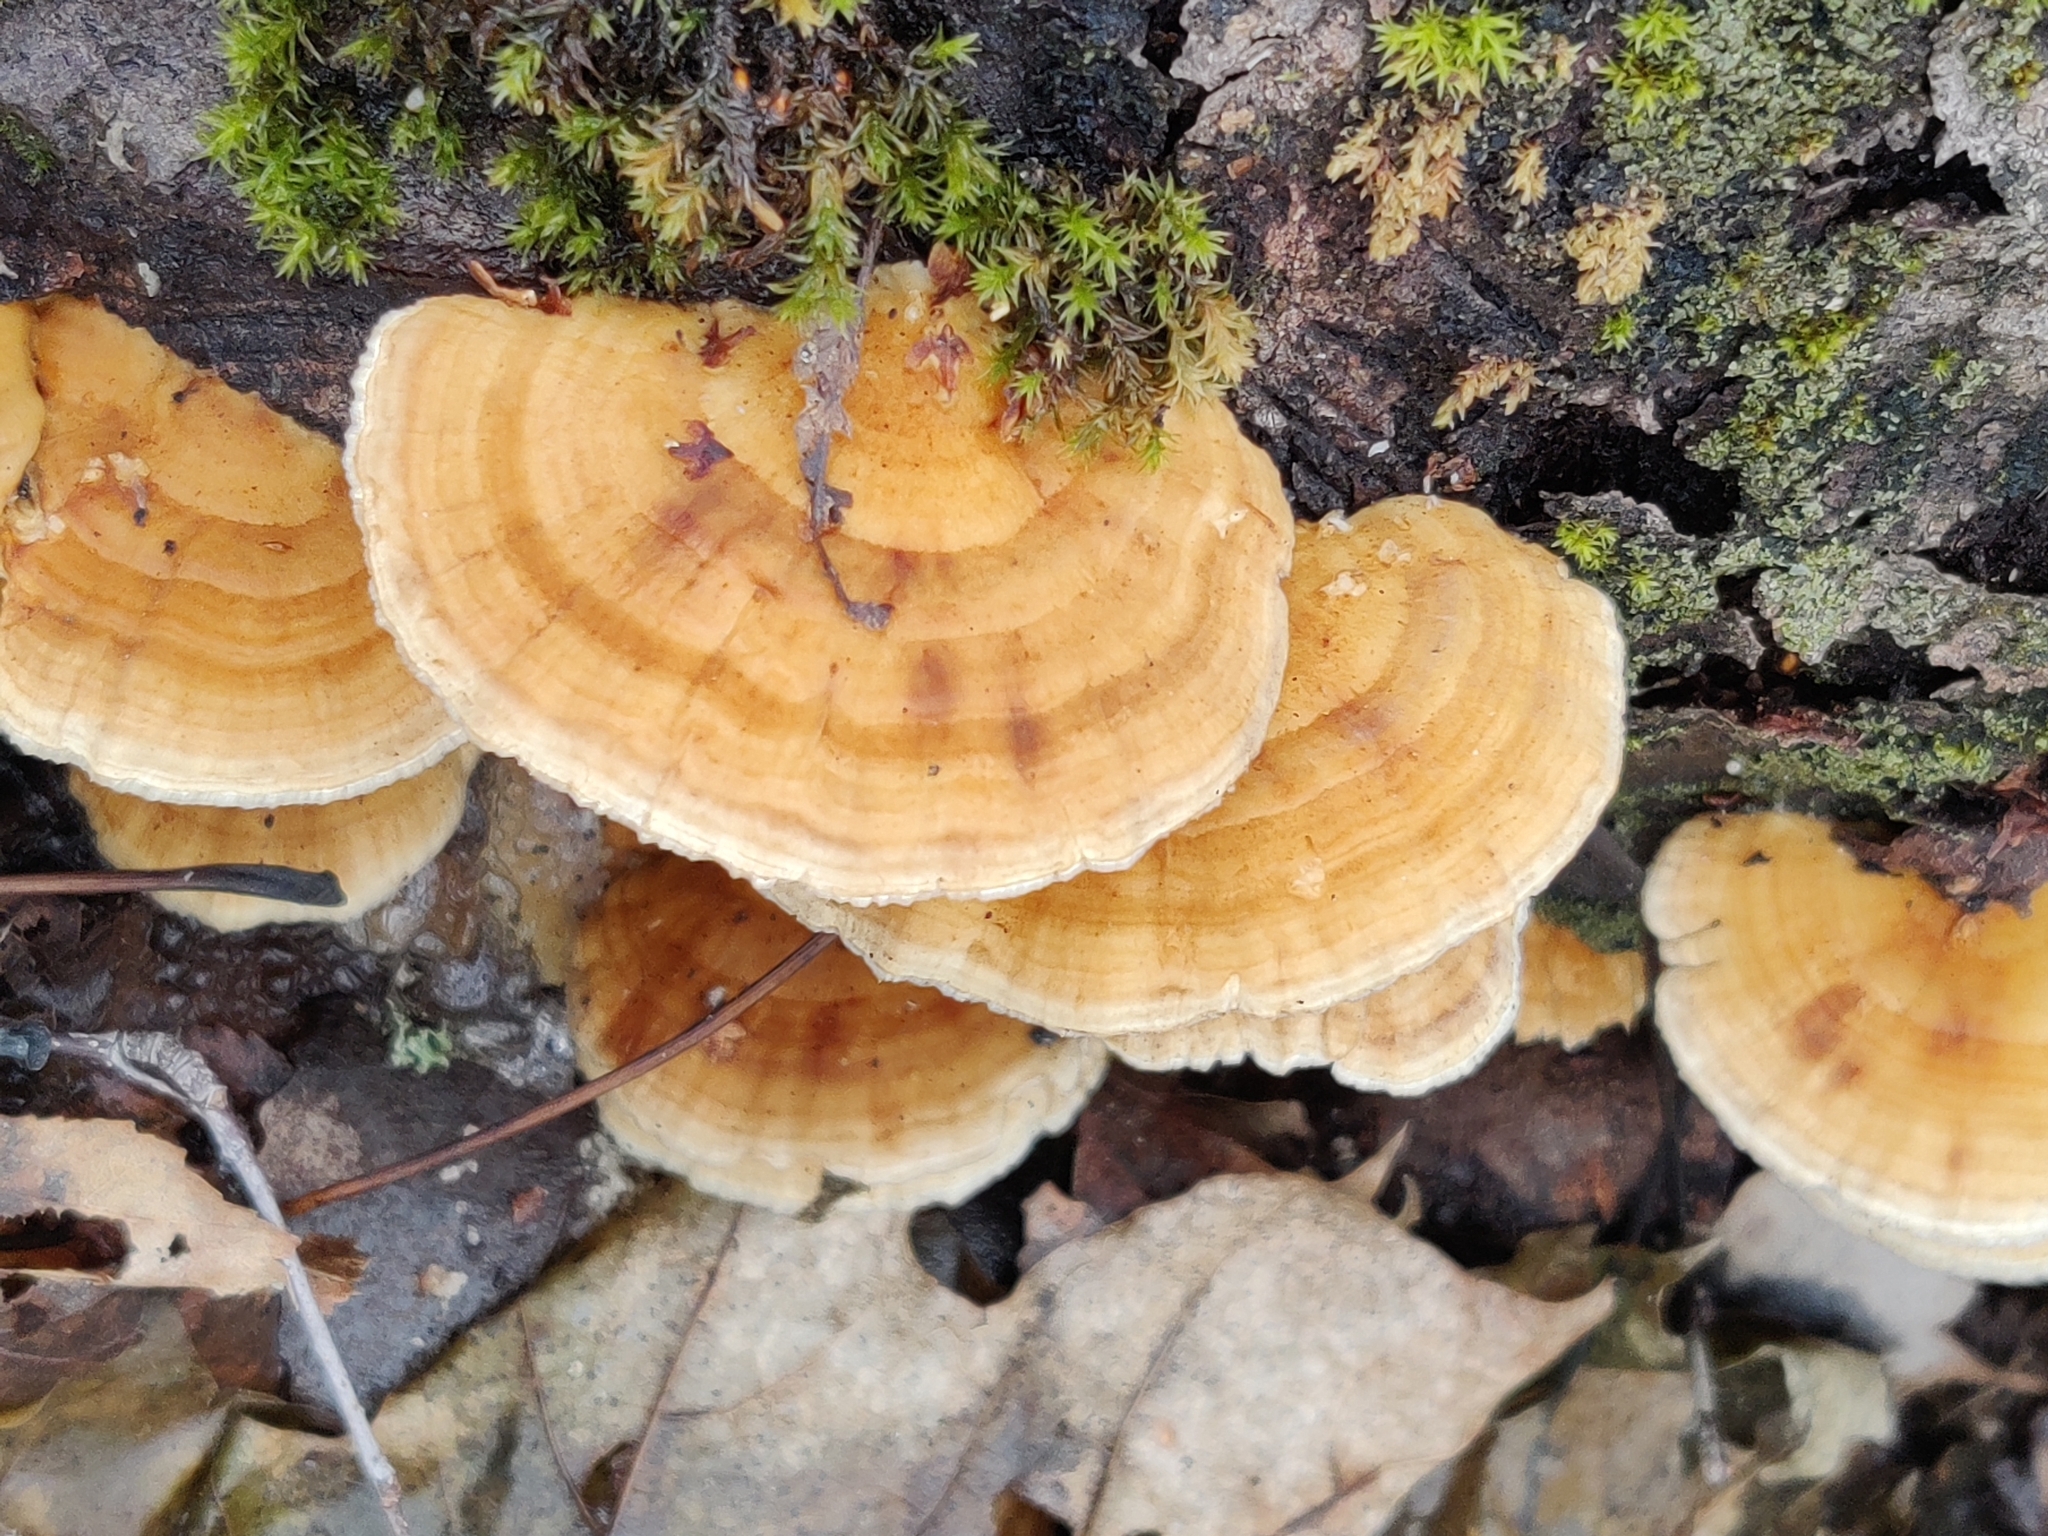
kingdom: Fungi
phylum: Basidiomycota
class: Agaricomycetes
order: Polyporales
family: Polyporaceae
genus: Trametes
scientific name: Trametes ochracea
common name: Ochre bracket
